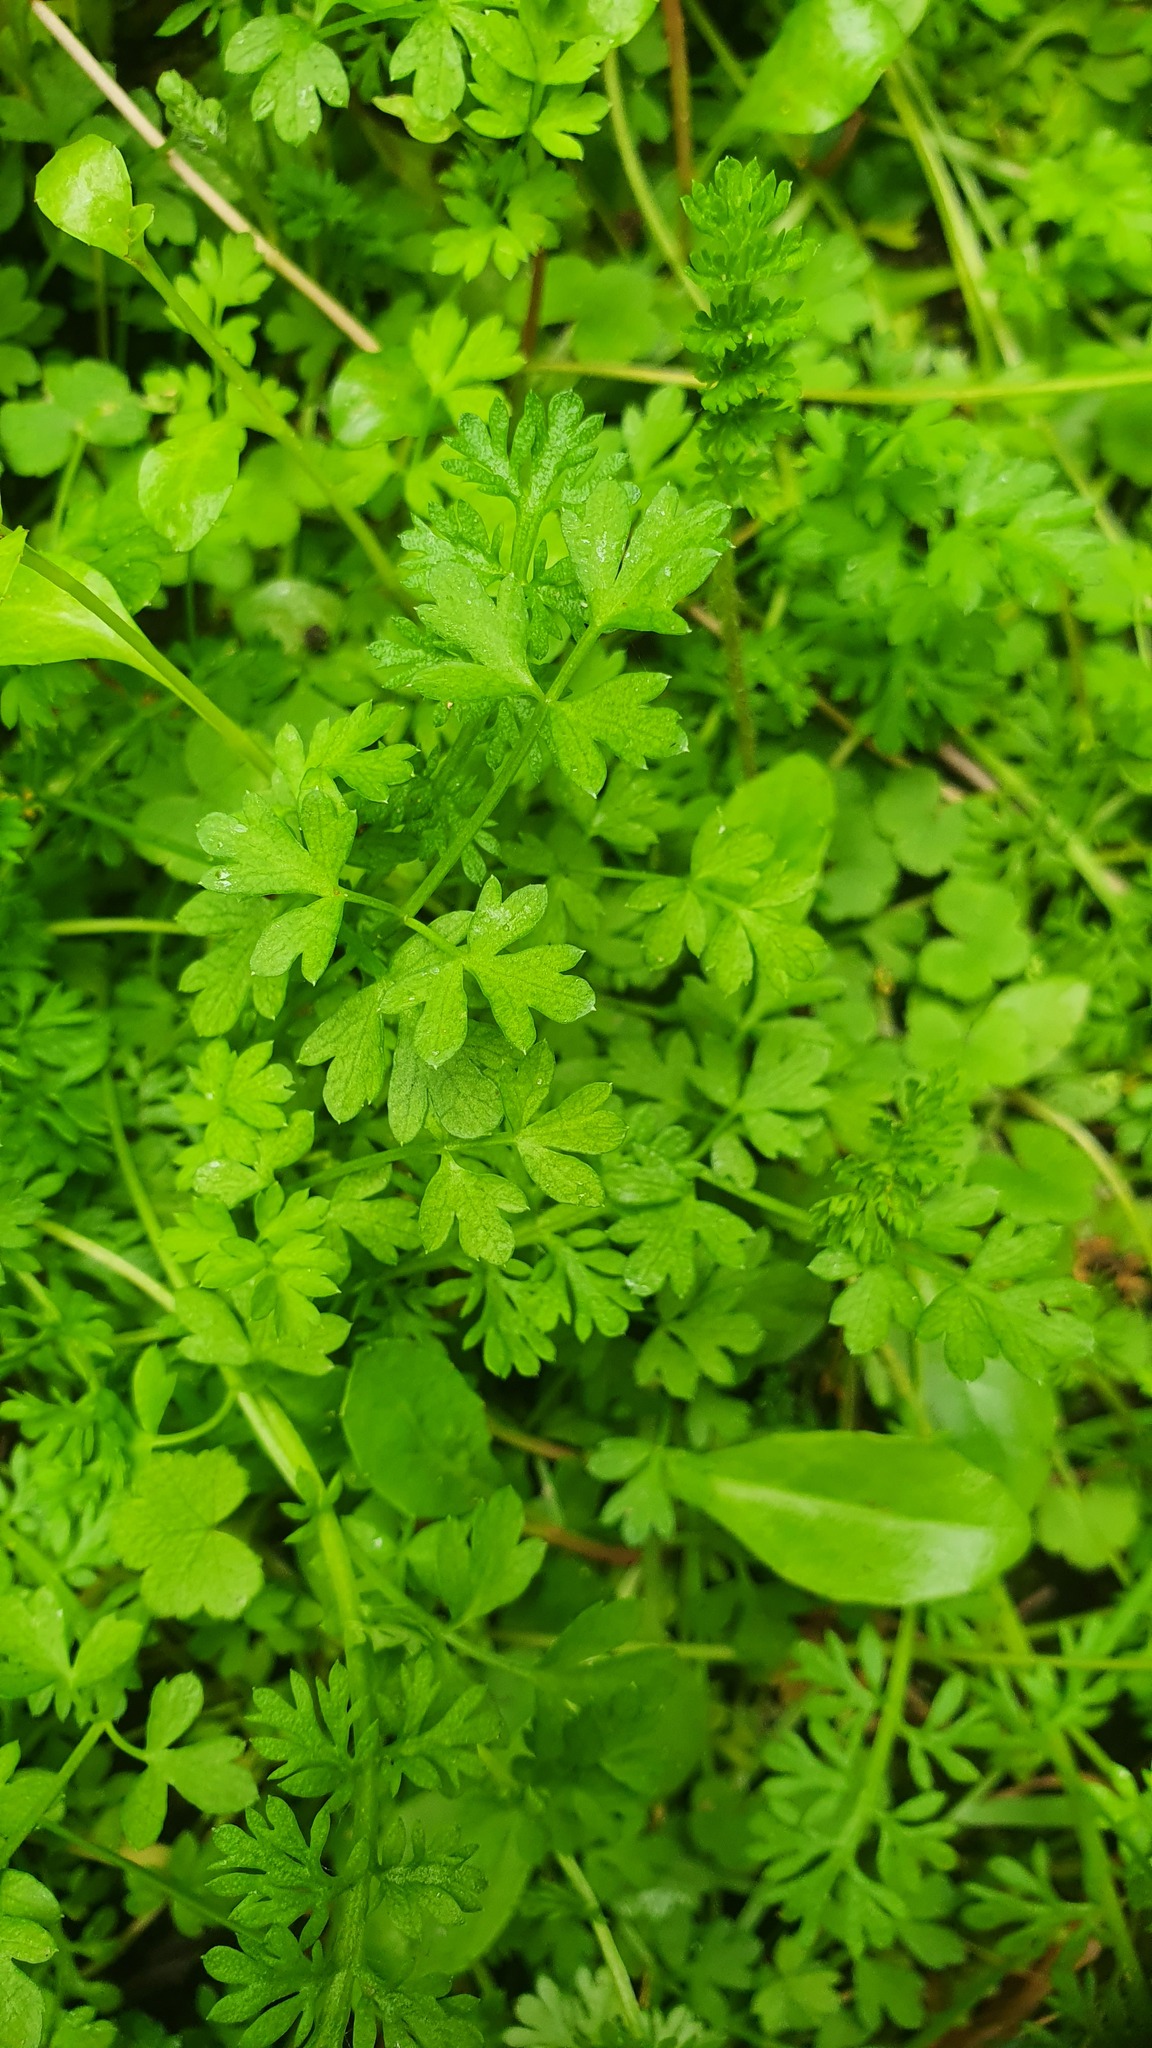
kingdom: Plantae
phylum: Tracheophyta
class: Magnoliopsida
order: Ranunculales
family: Papaveraceae
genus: Fumaria
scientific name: Fumaria muralis
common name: Common ramping-fumitory
